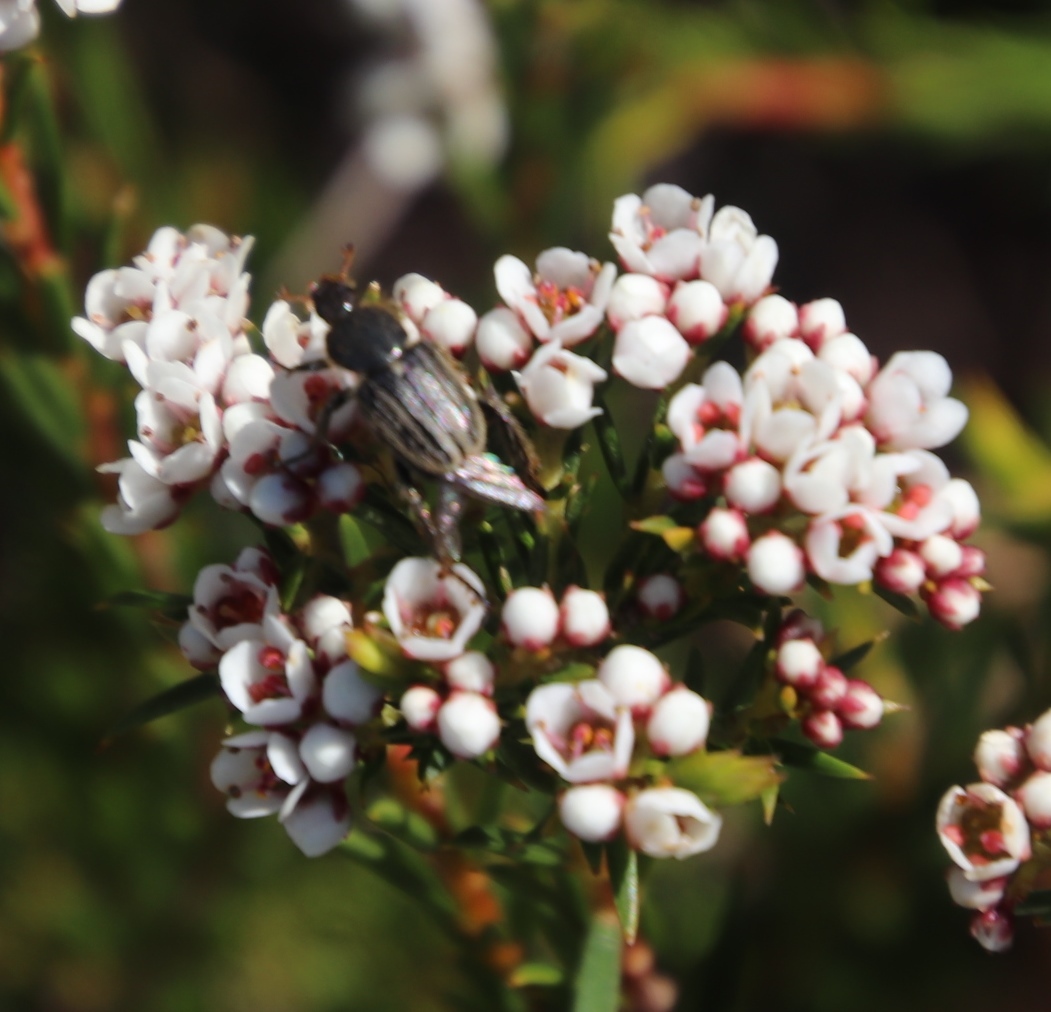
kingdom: Plantae
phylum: Tracheophyta
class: Magnoliopsida
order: Sapindales
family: Rutaceae
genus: Diosma
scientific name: Diosma hirsuta
